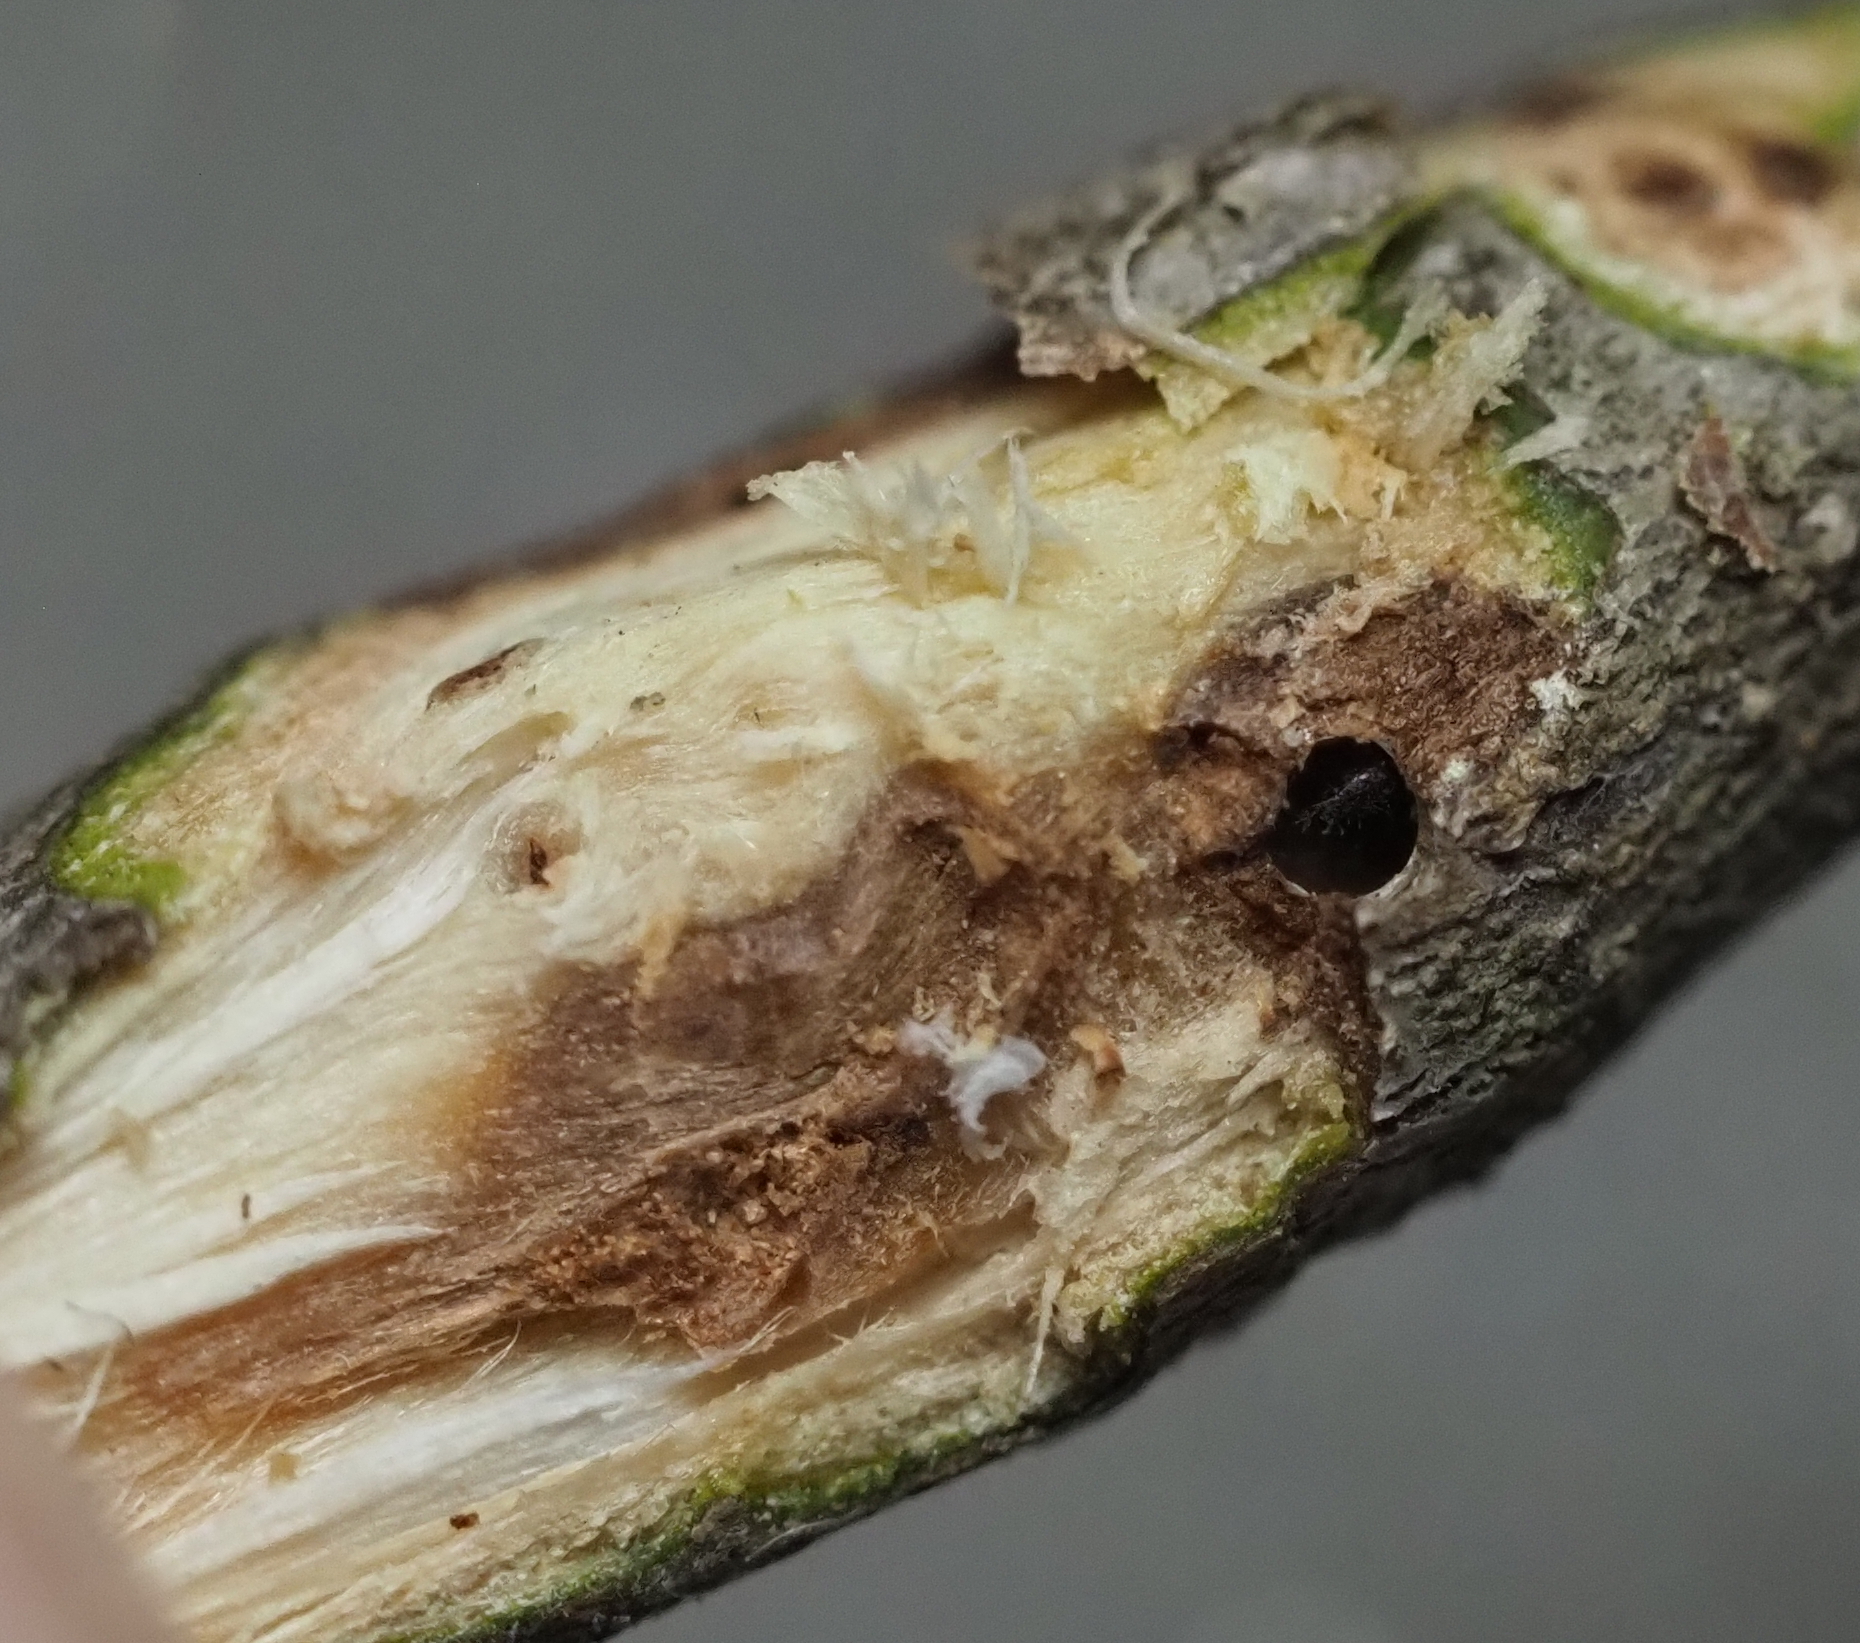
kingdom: Animalia
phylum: Arthropoda
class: Insecta
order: Hymenoptera
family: Cynipidae
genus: Bassettia
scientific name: Bassettia pallida
